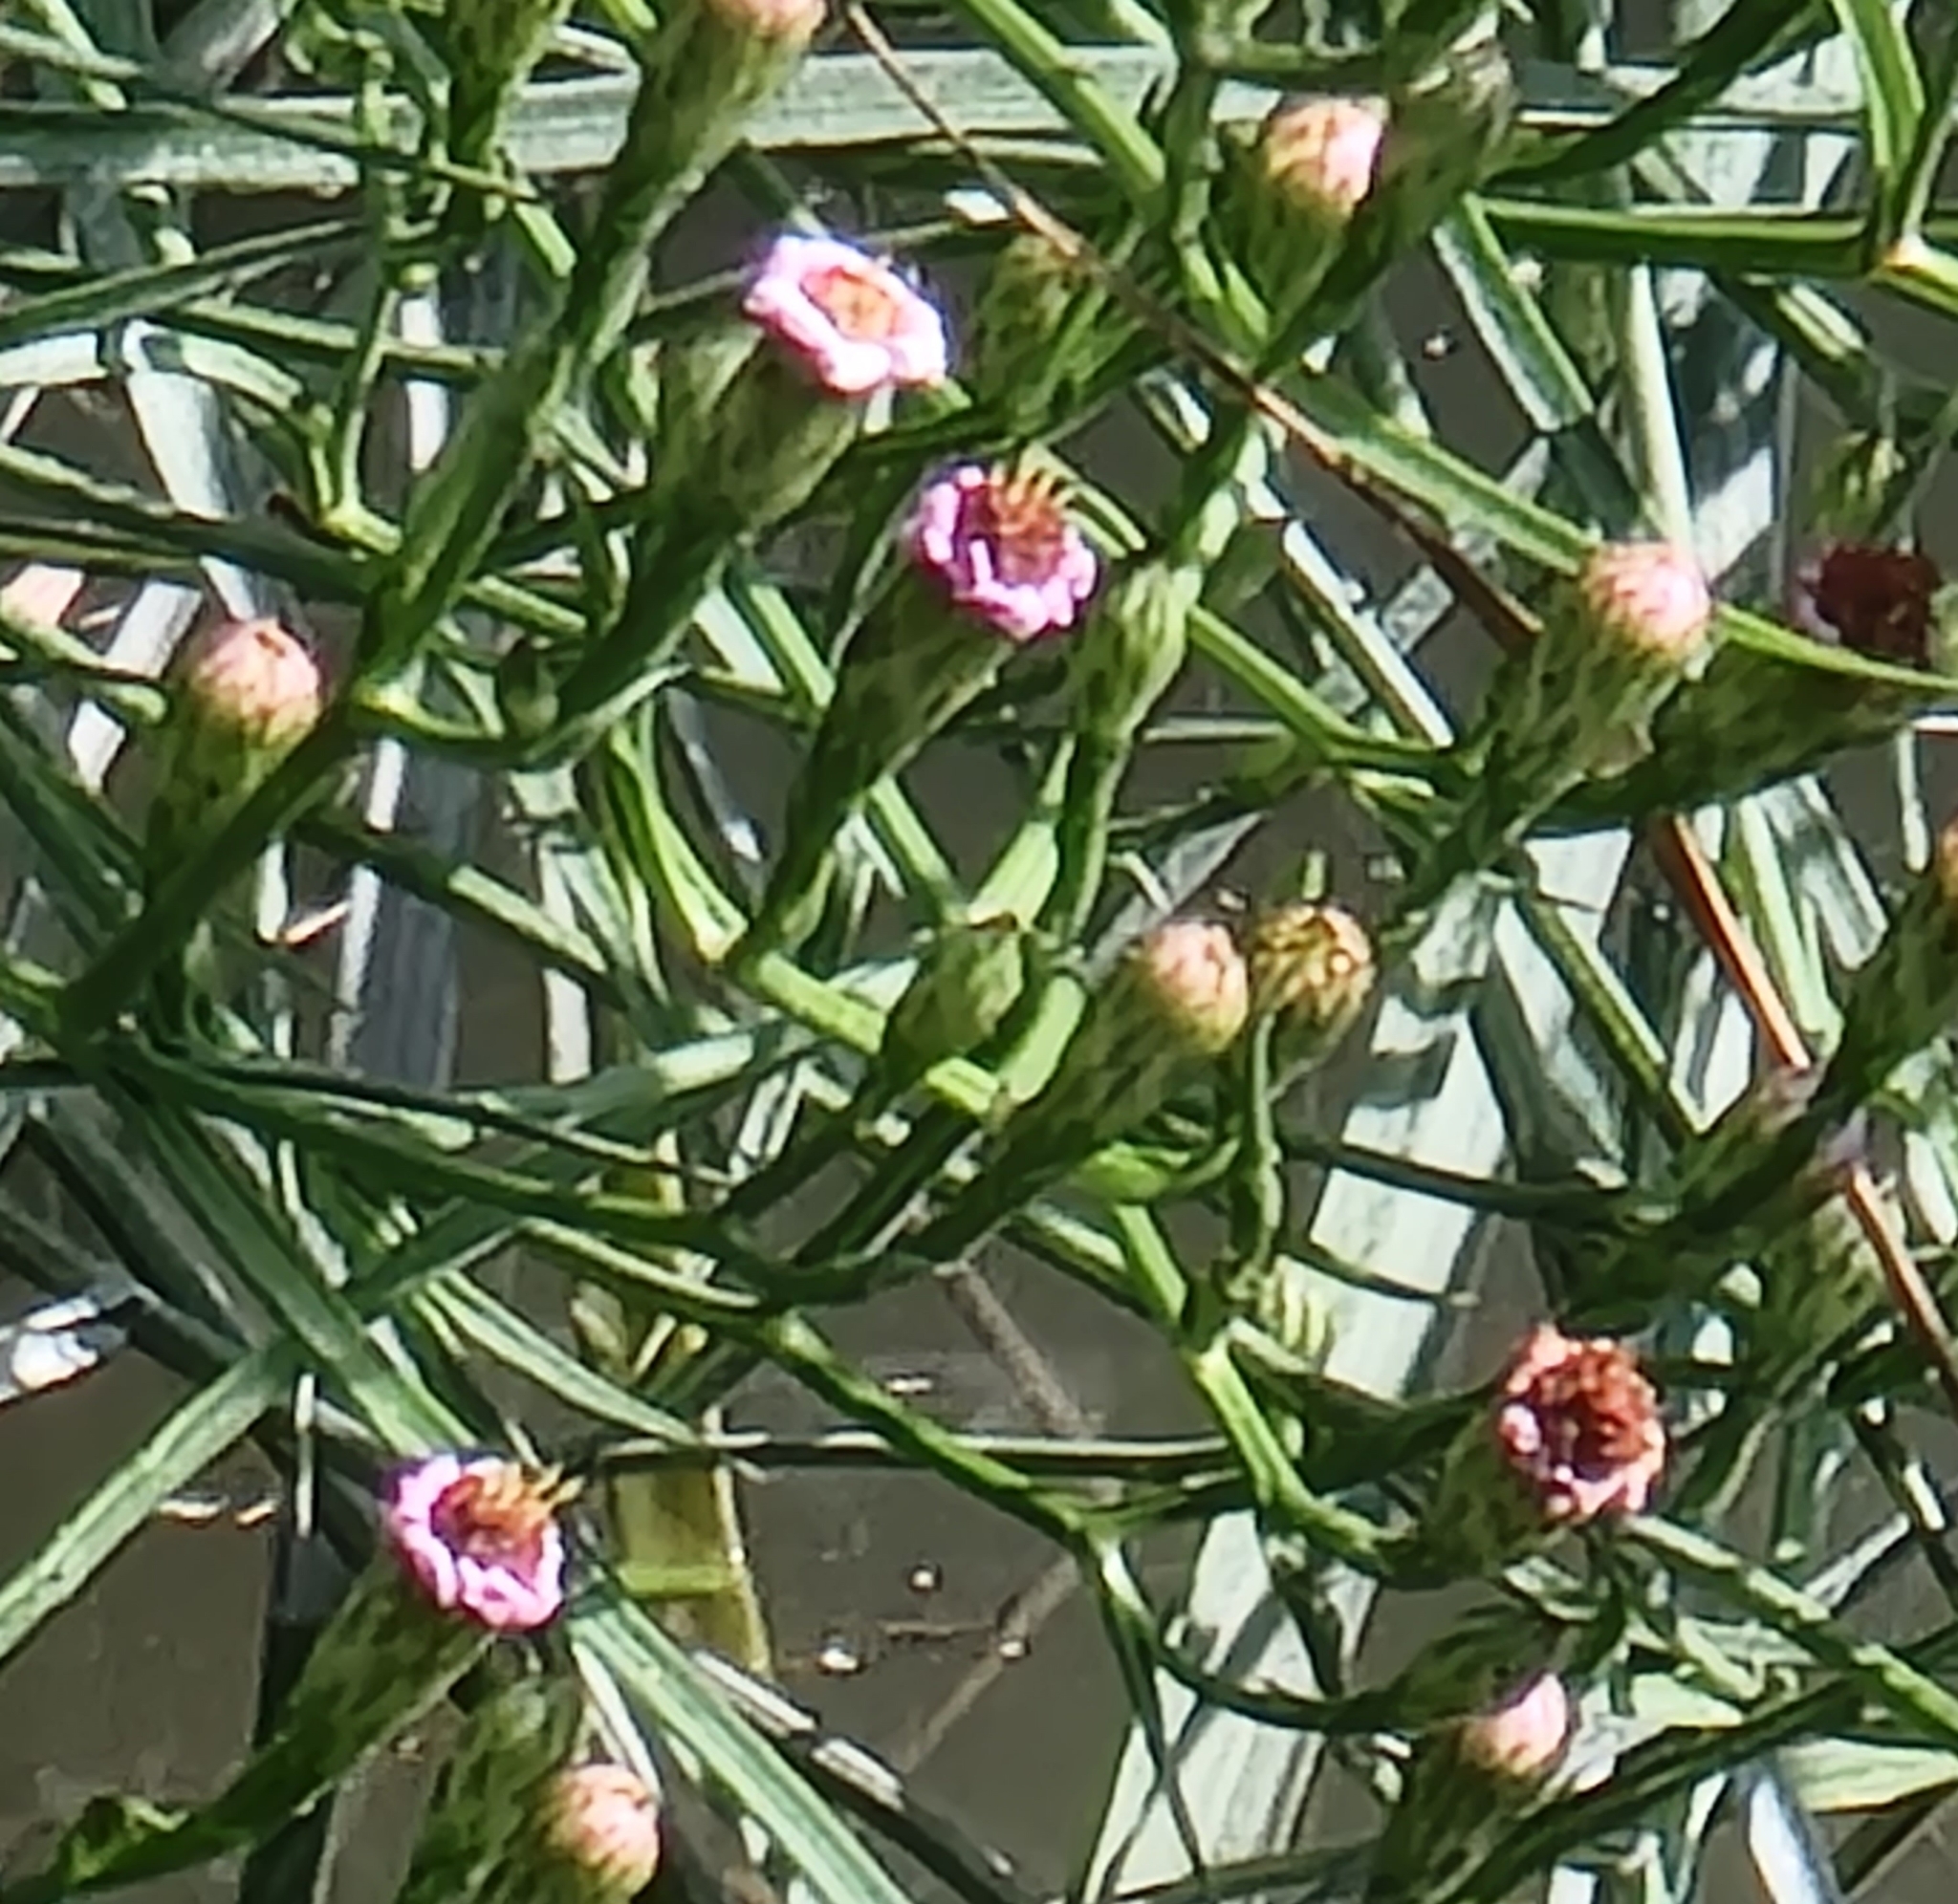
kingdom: Plantae
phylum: Tracheophyta
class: Magnoliopsida
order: Asterales
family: Asteraceae
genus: Symphyotrichum
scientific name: Symphyotrichum tenuifolium
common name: Perennial salt-marsh aster
